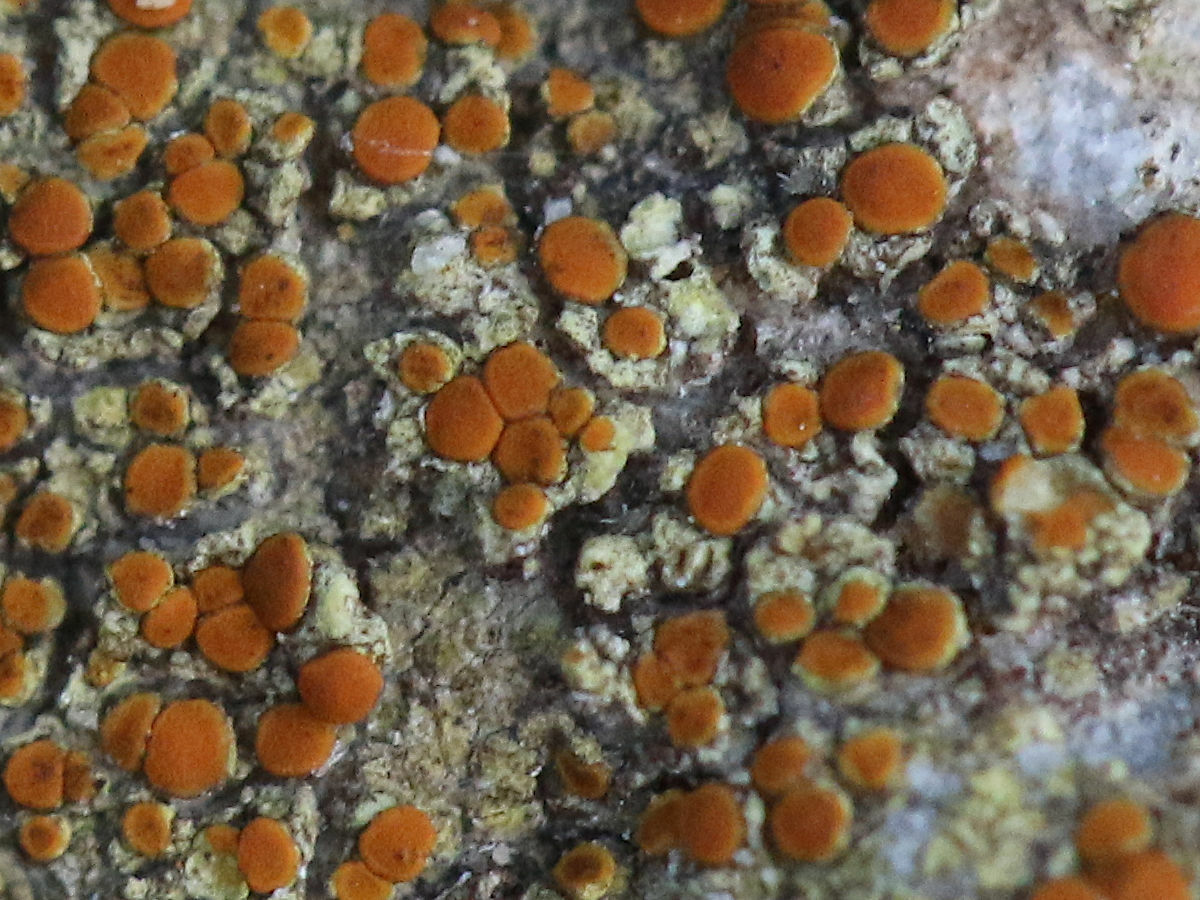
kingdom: Fungi
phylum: Ascomycota
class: Lecanoromycetes
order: Teloschistales
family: Teloschistaceae
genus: Gyalolechia
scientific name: Gyalolechia flavovirescens
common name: Sulphur firedot
